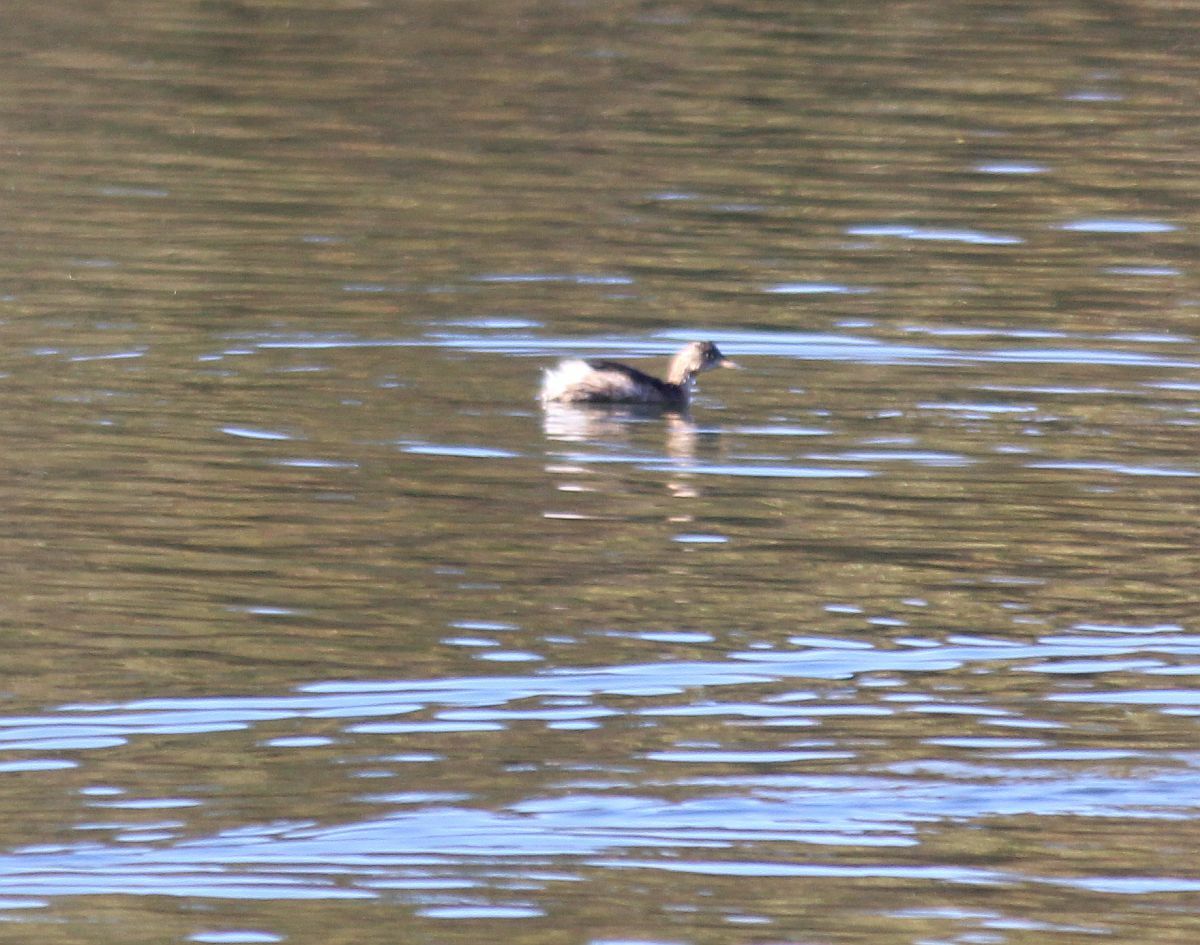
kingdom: Animalia
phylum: Chordata
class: Aves
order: Podicipediformes
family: Podicipedidae
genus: Tachybaptus
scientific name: Tachybaptus ruficollis
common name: Little grebe
